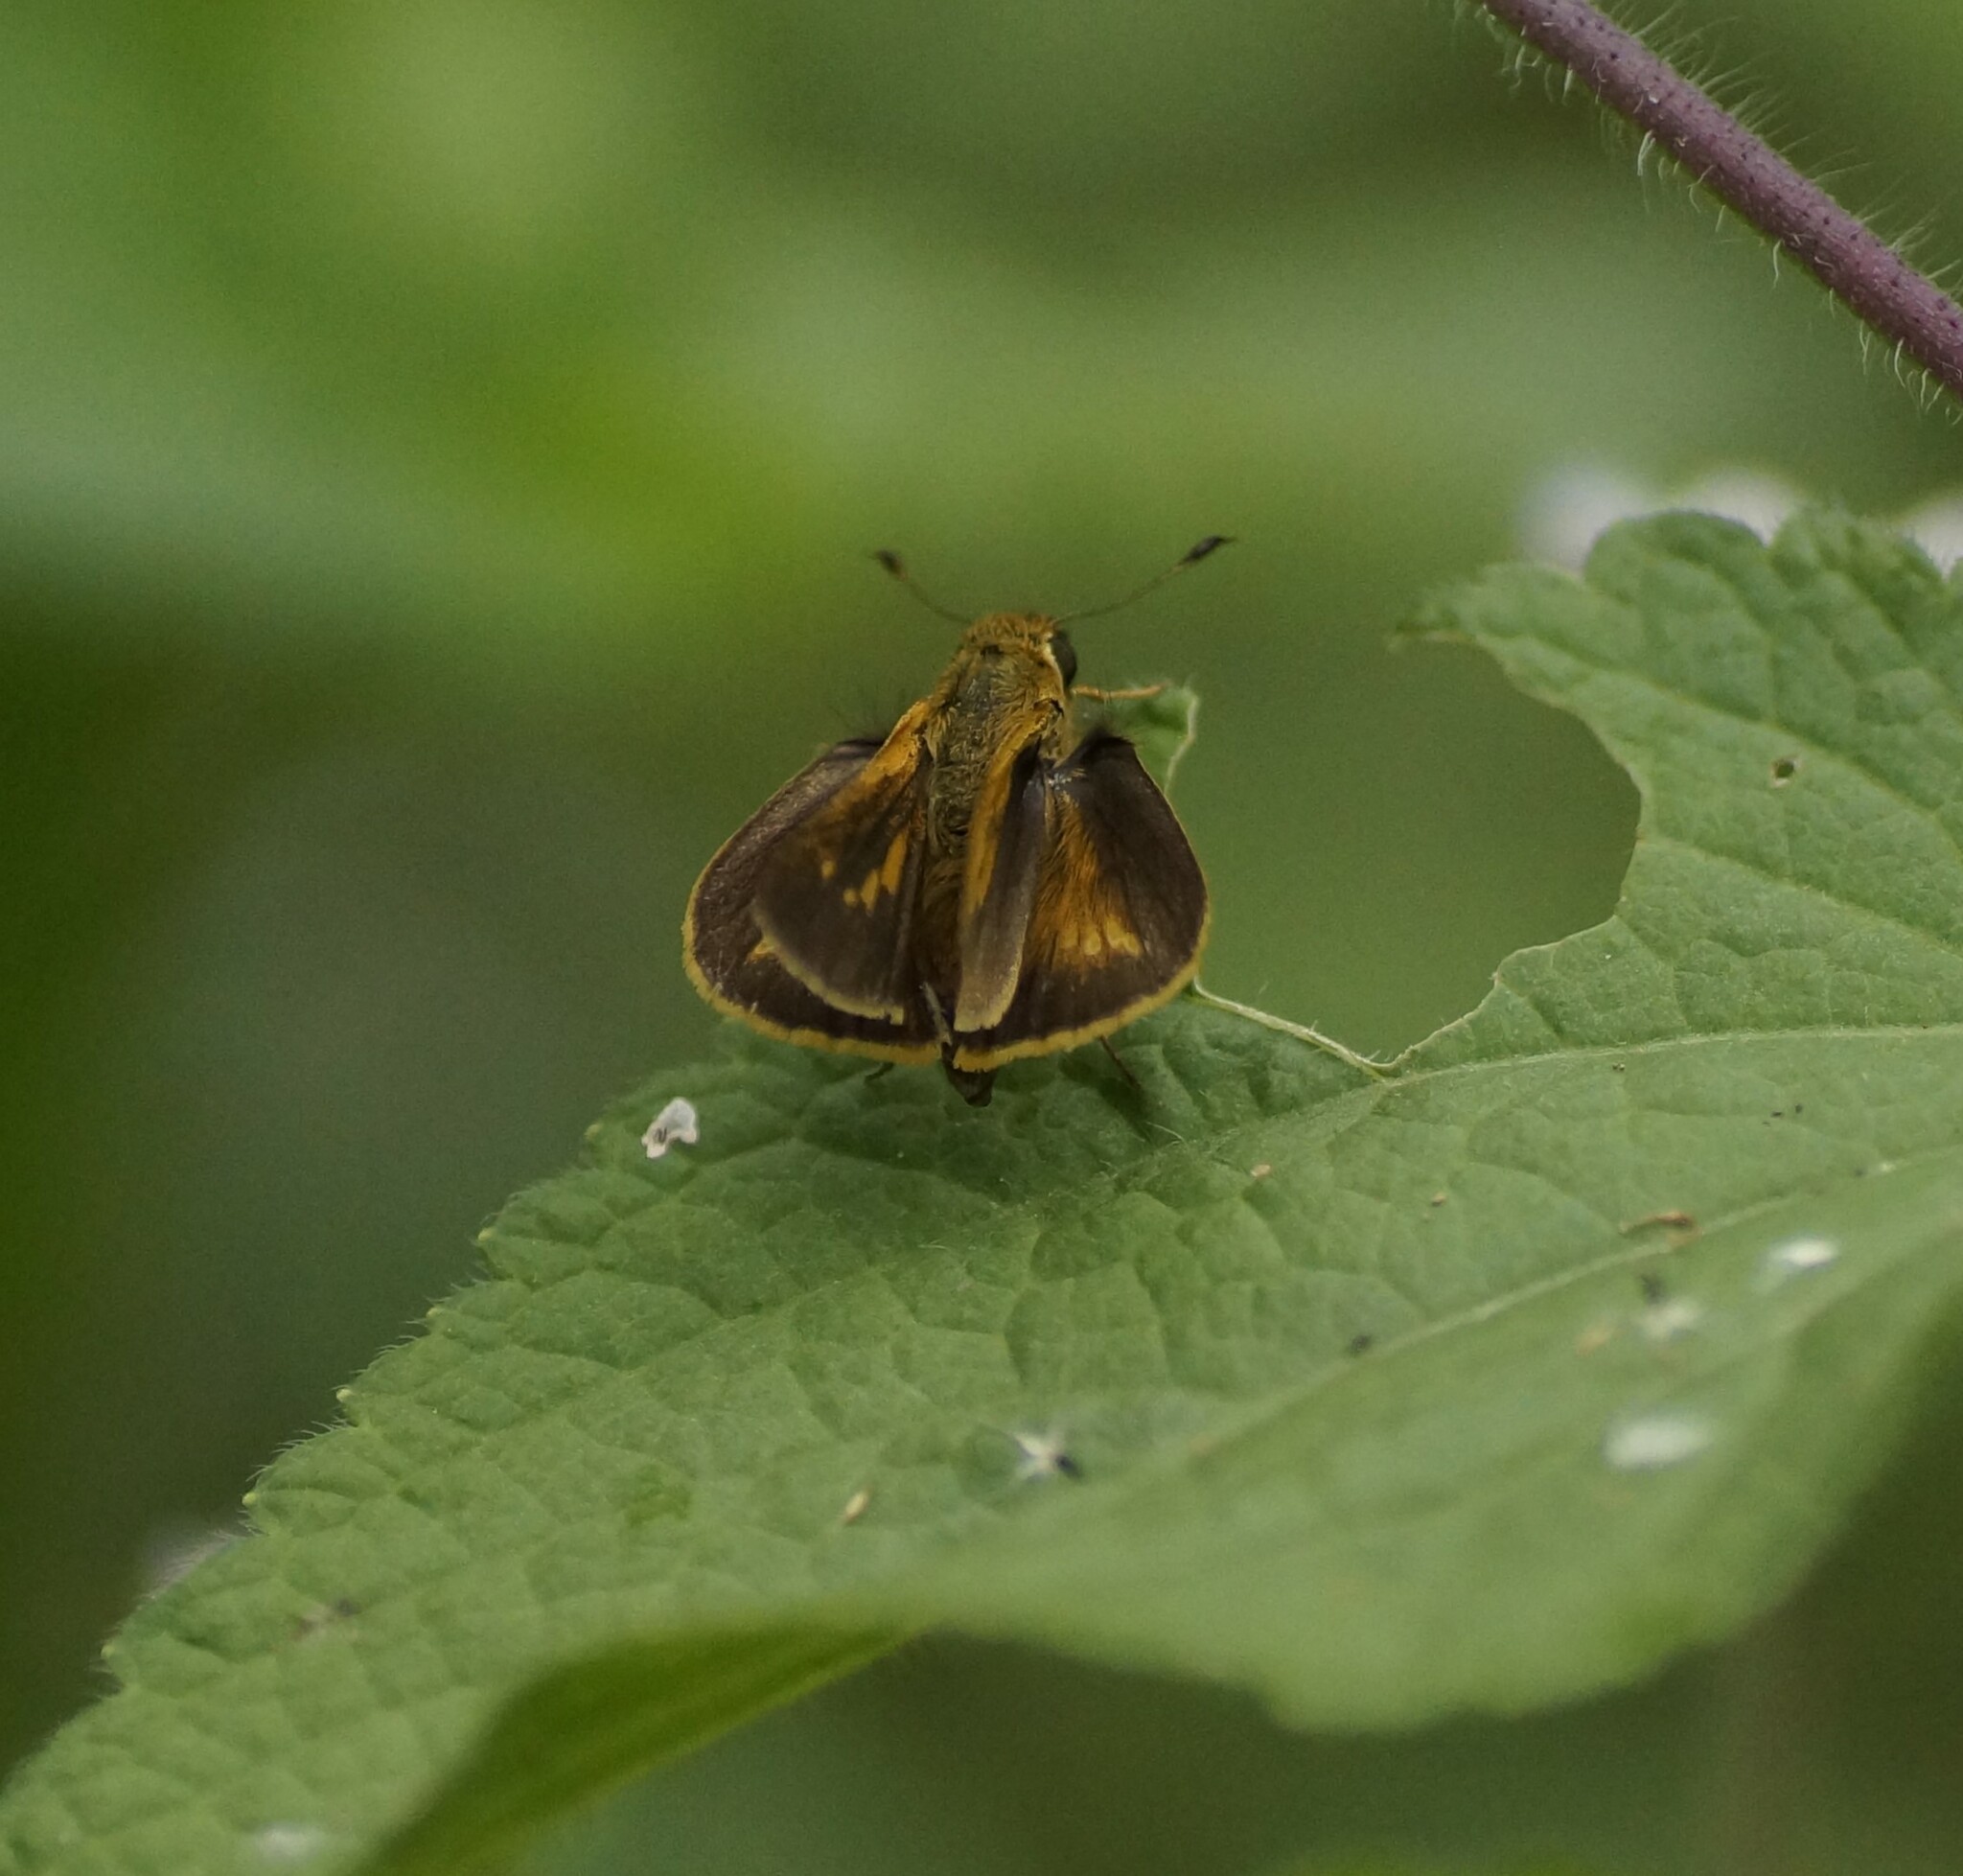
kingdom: Animalia
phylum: Arthropoda
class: Insecta
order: Lepidoptera
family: Hesperiidae
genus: Parnara
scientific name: Parnara amalia
